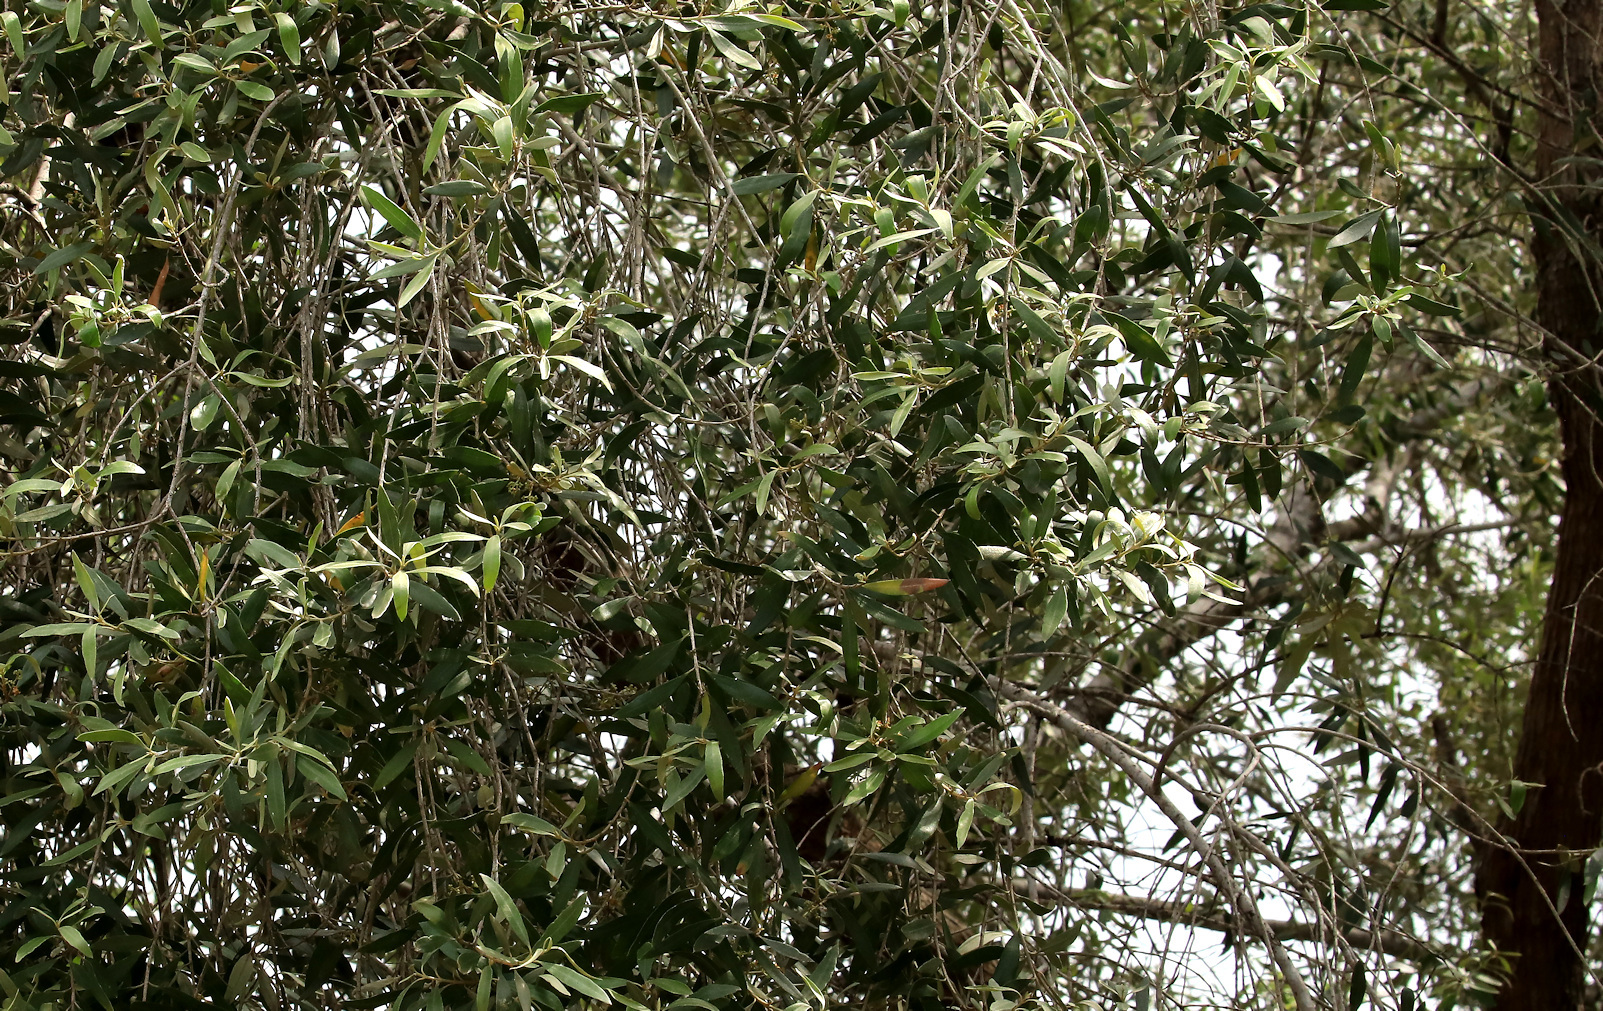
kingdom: Plantae
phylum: Tracheophyta
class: Magnoliopsida
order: Lamiales
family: Oleaceae
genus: Olea
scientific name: Olea europaea
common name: Olive
